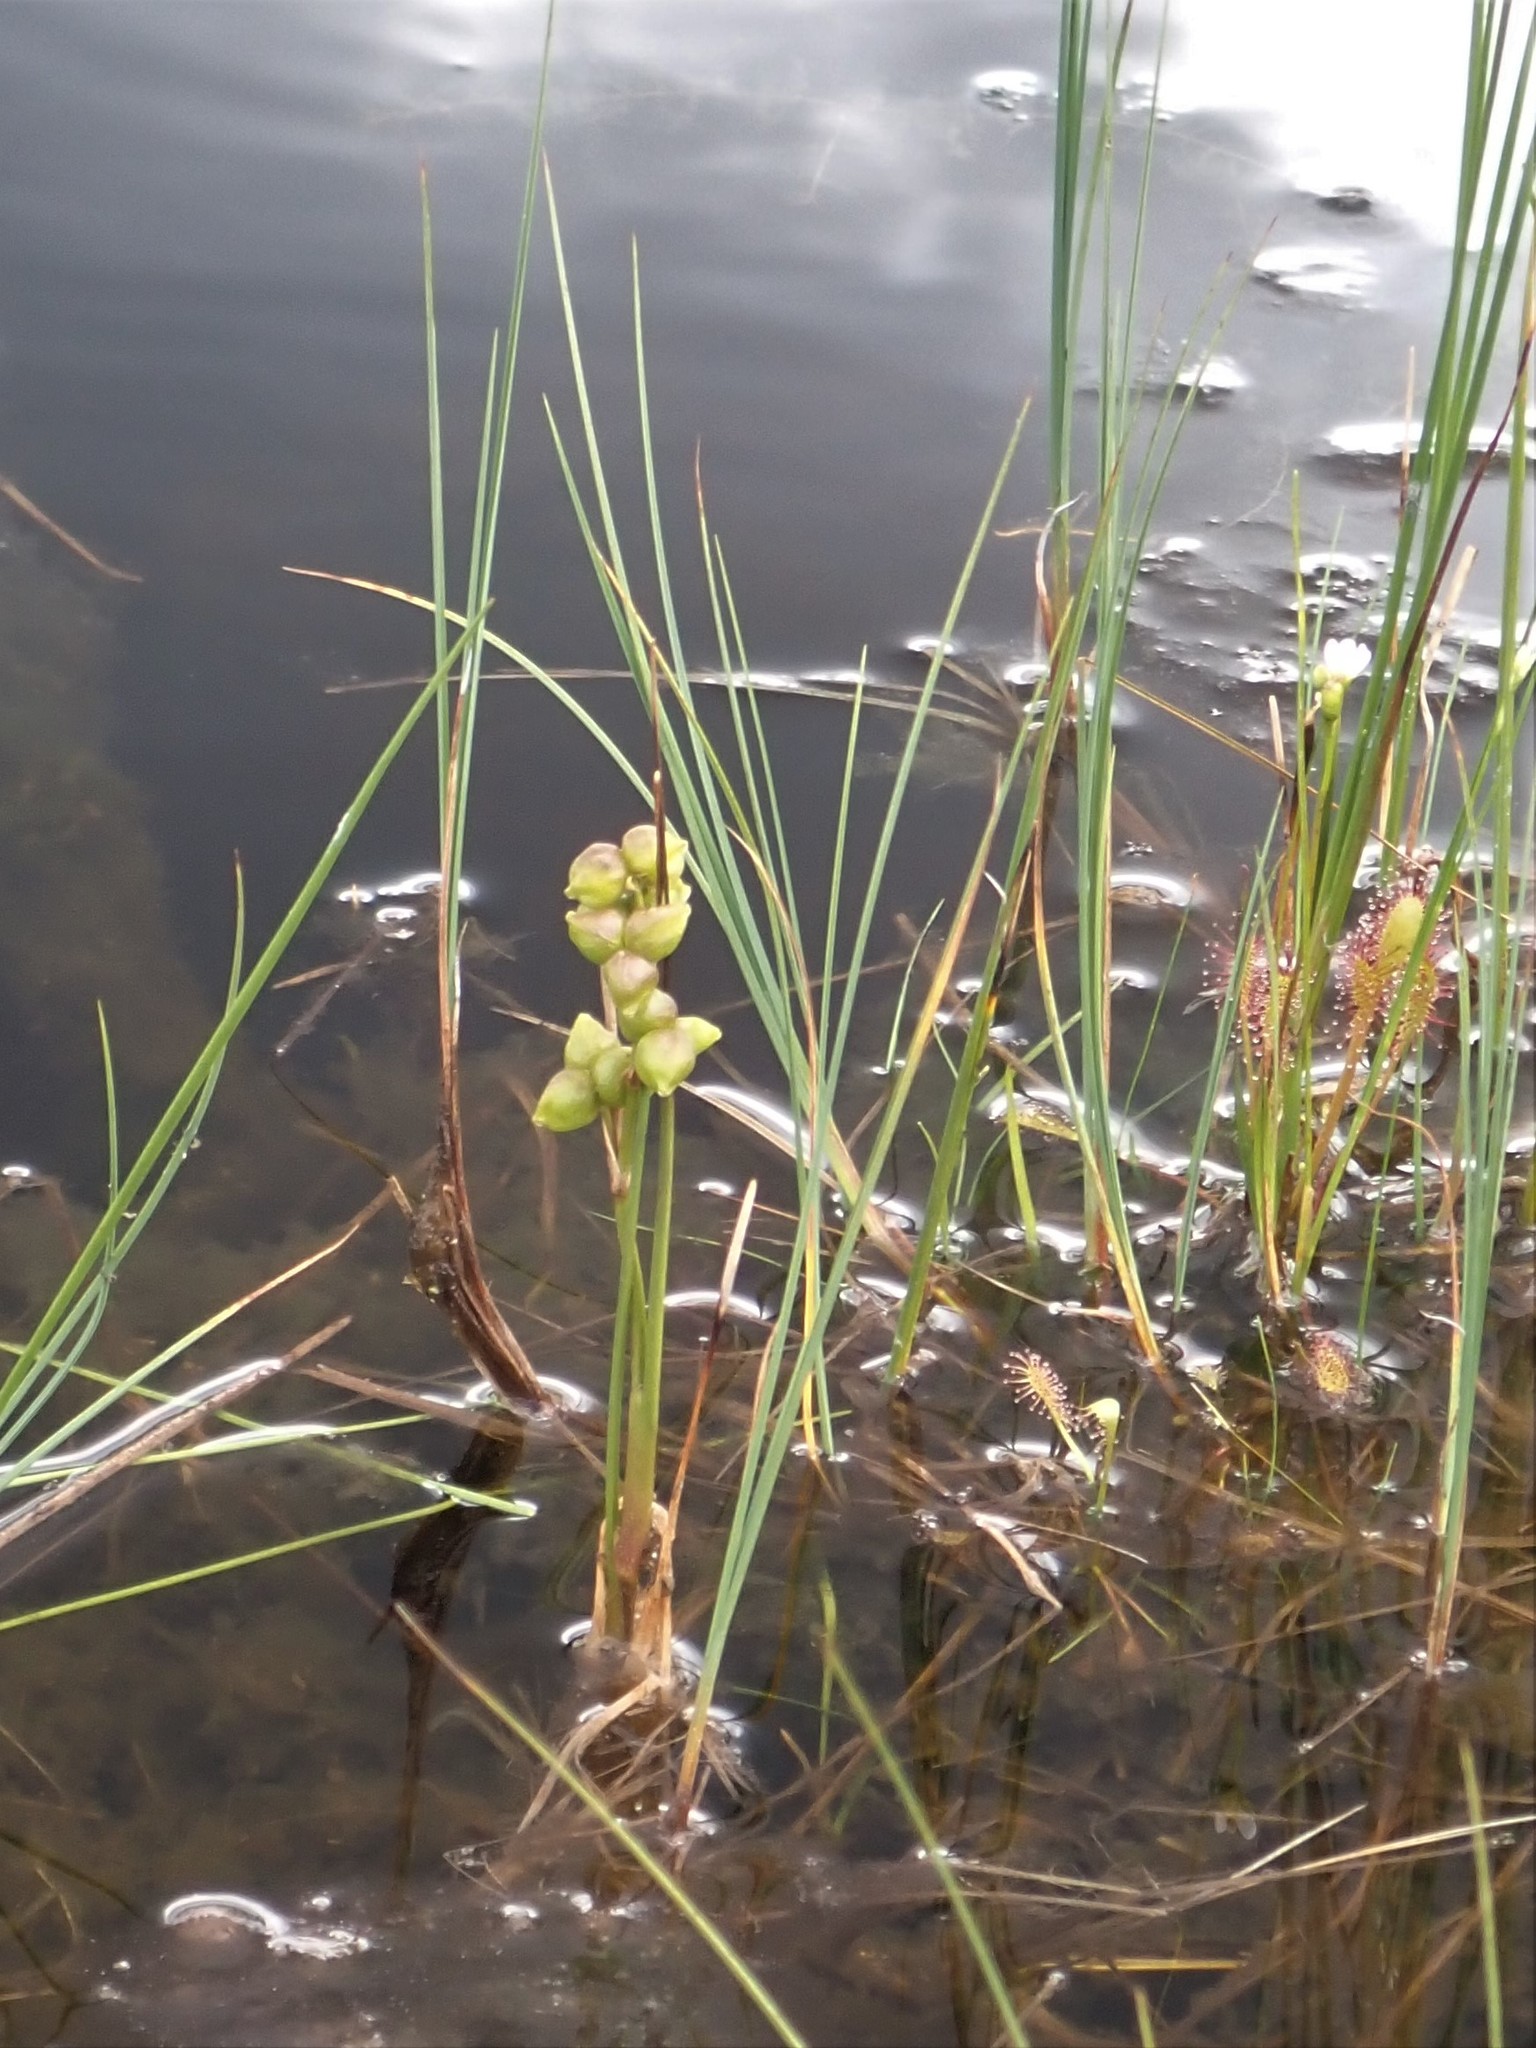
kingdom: Plantae
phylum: Tracheophyta
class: Liliopsida
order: Alismatales
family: Scheuchzeriaceae
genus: Scheuchzeria
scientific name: Scheuchzeria palustris
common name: Rannoch-rush
